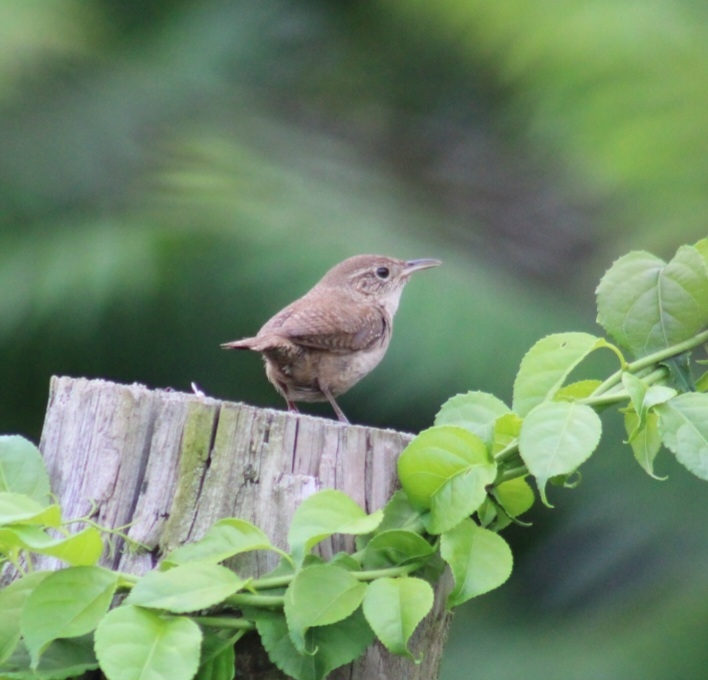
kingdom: Animalia
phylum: Chordata
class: Aves
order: Passeriformes
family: Troglodytidae
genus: Troglodytes
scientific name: Troglodytes aedon
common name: House wren
